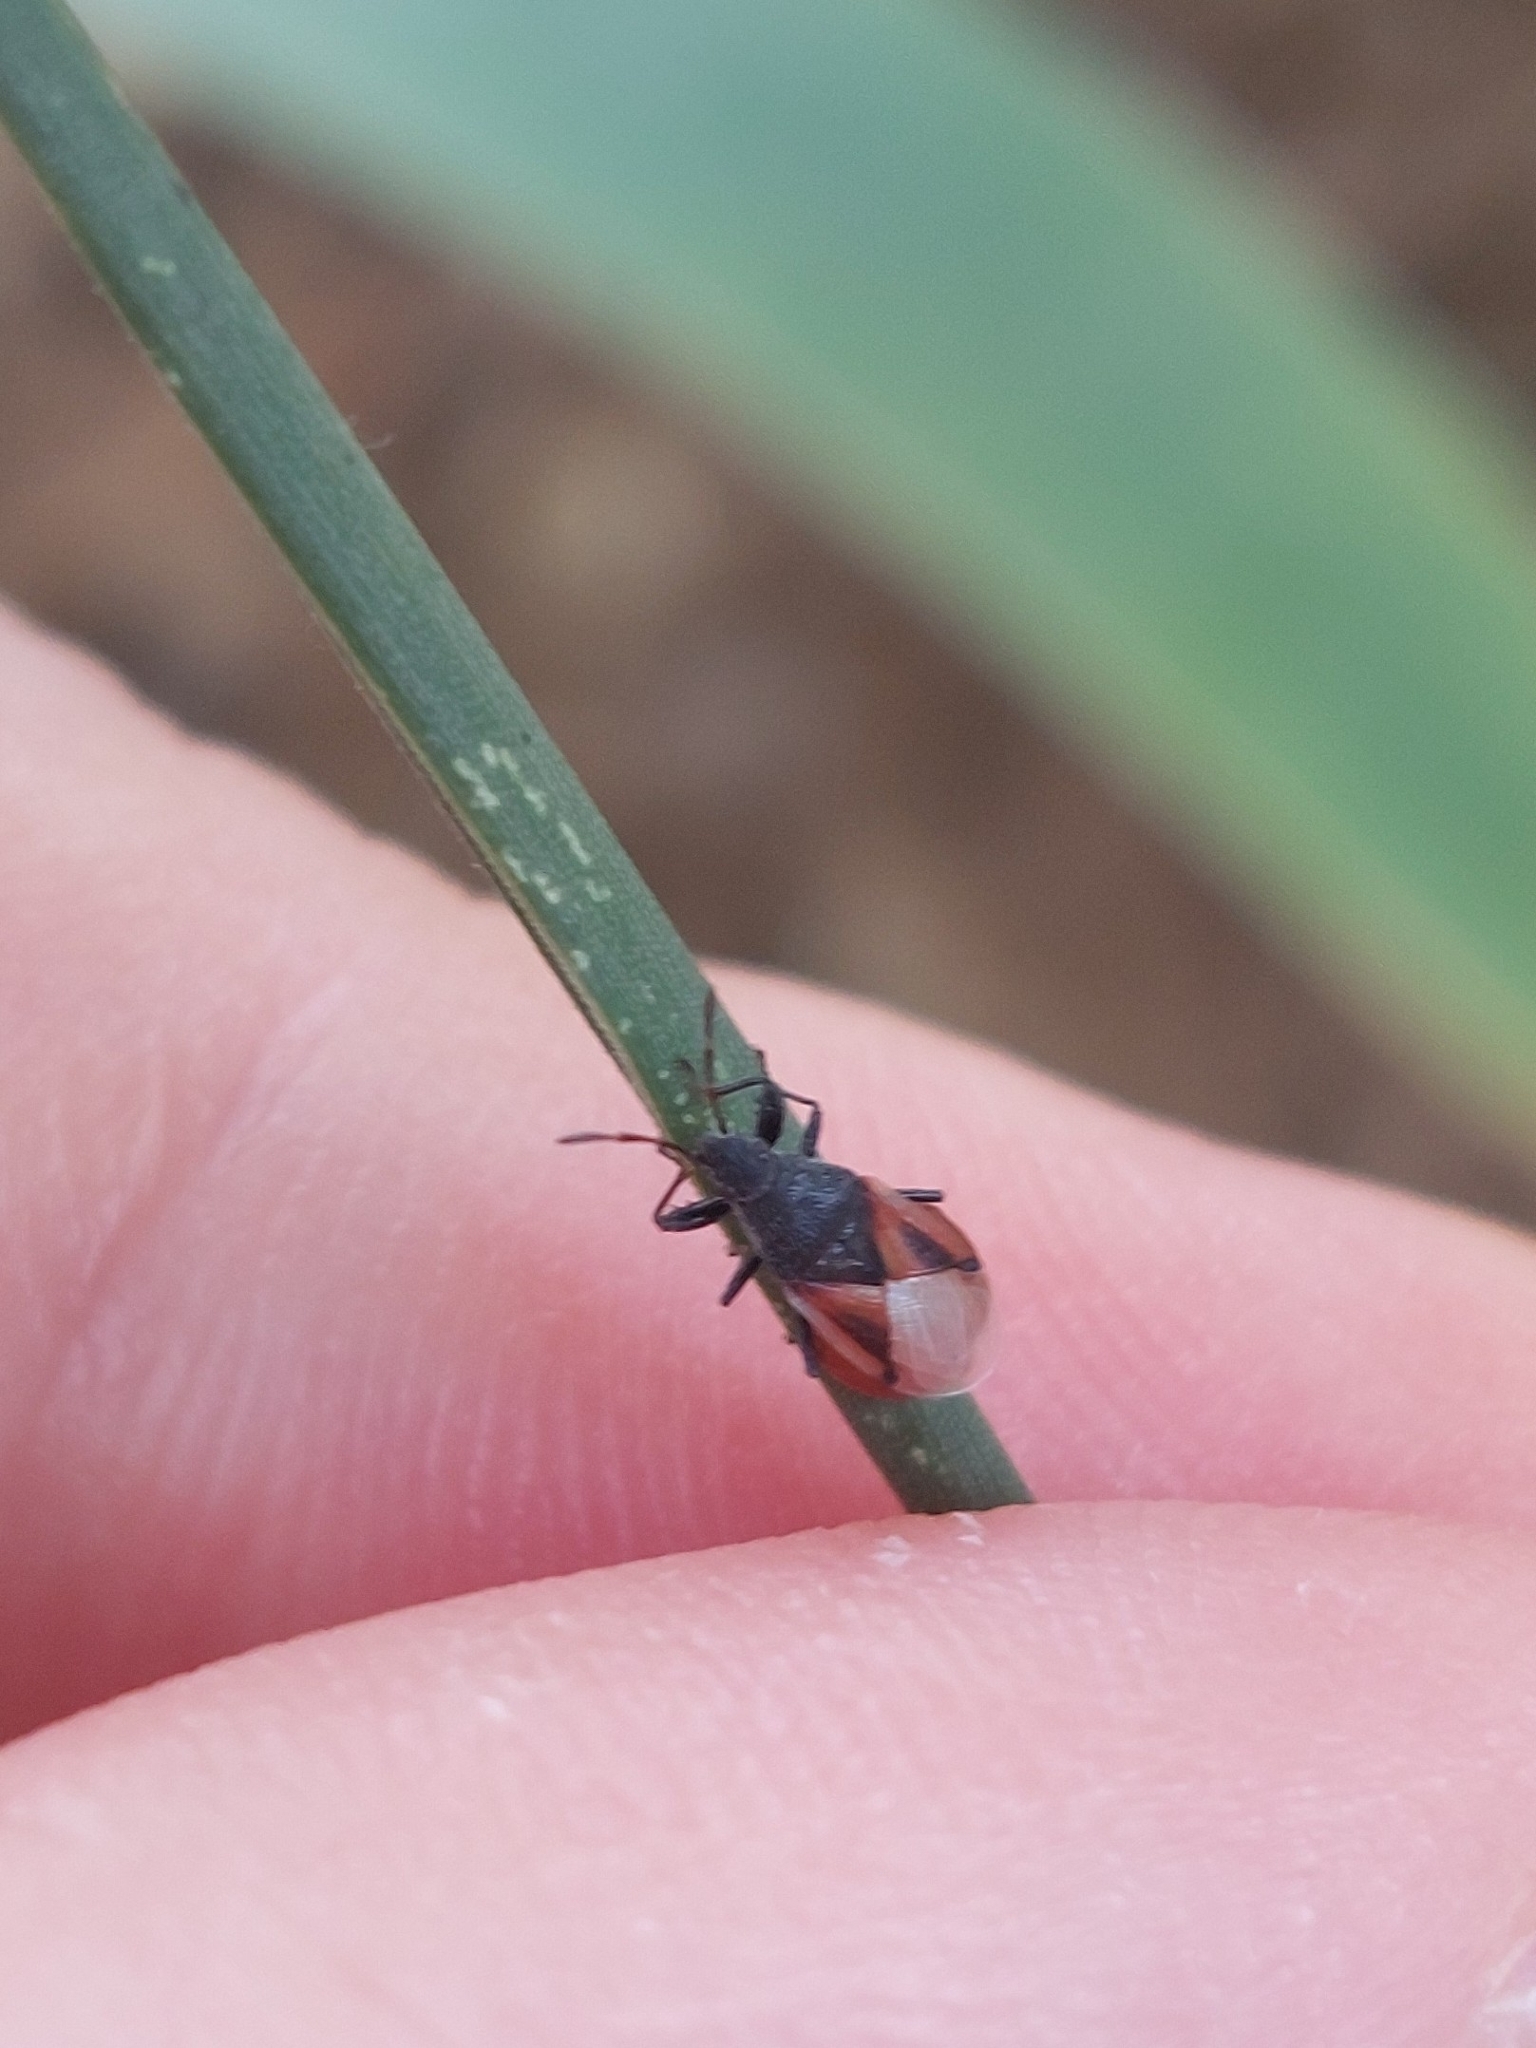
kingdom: Animalia
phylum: Arthropoda
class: Insecta
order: Hemiptera
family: Oxycarenidae
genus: Oxycarenus
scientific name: Oxycarenus lavaterae
